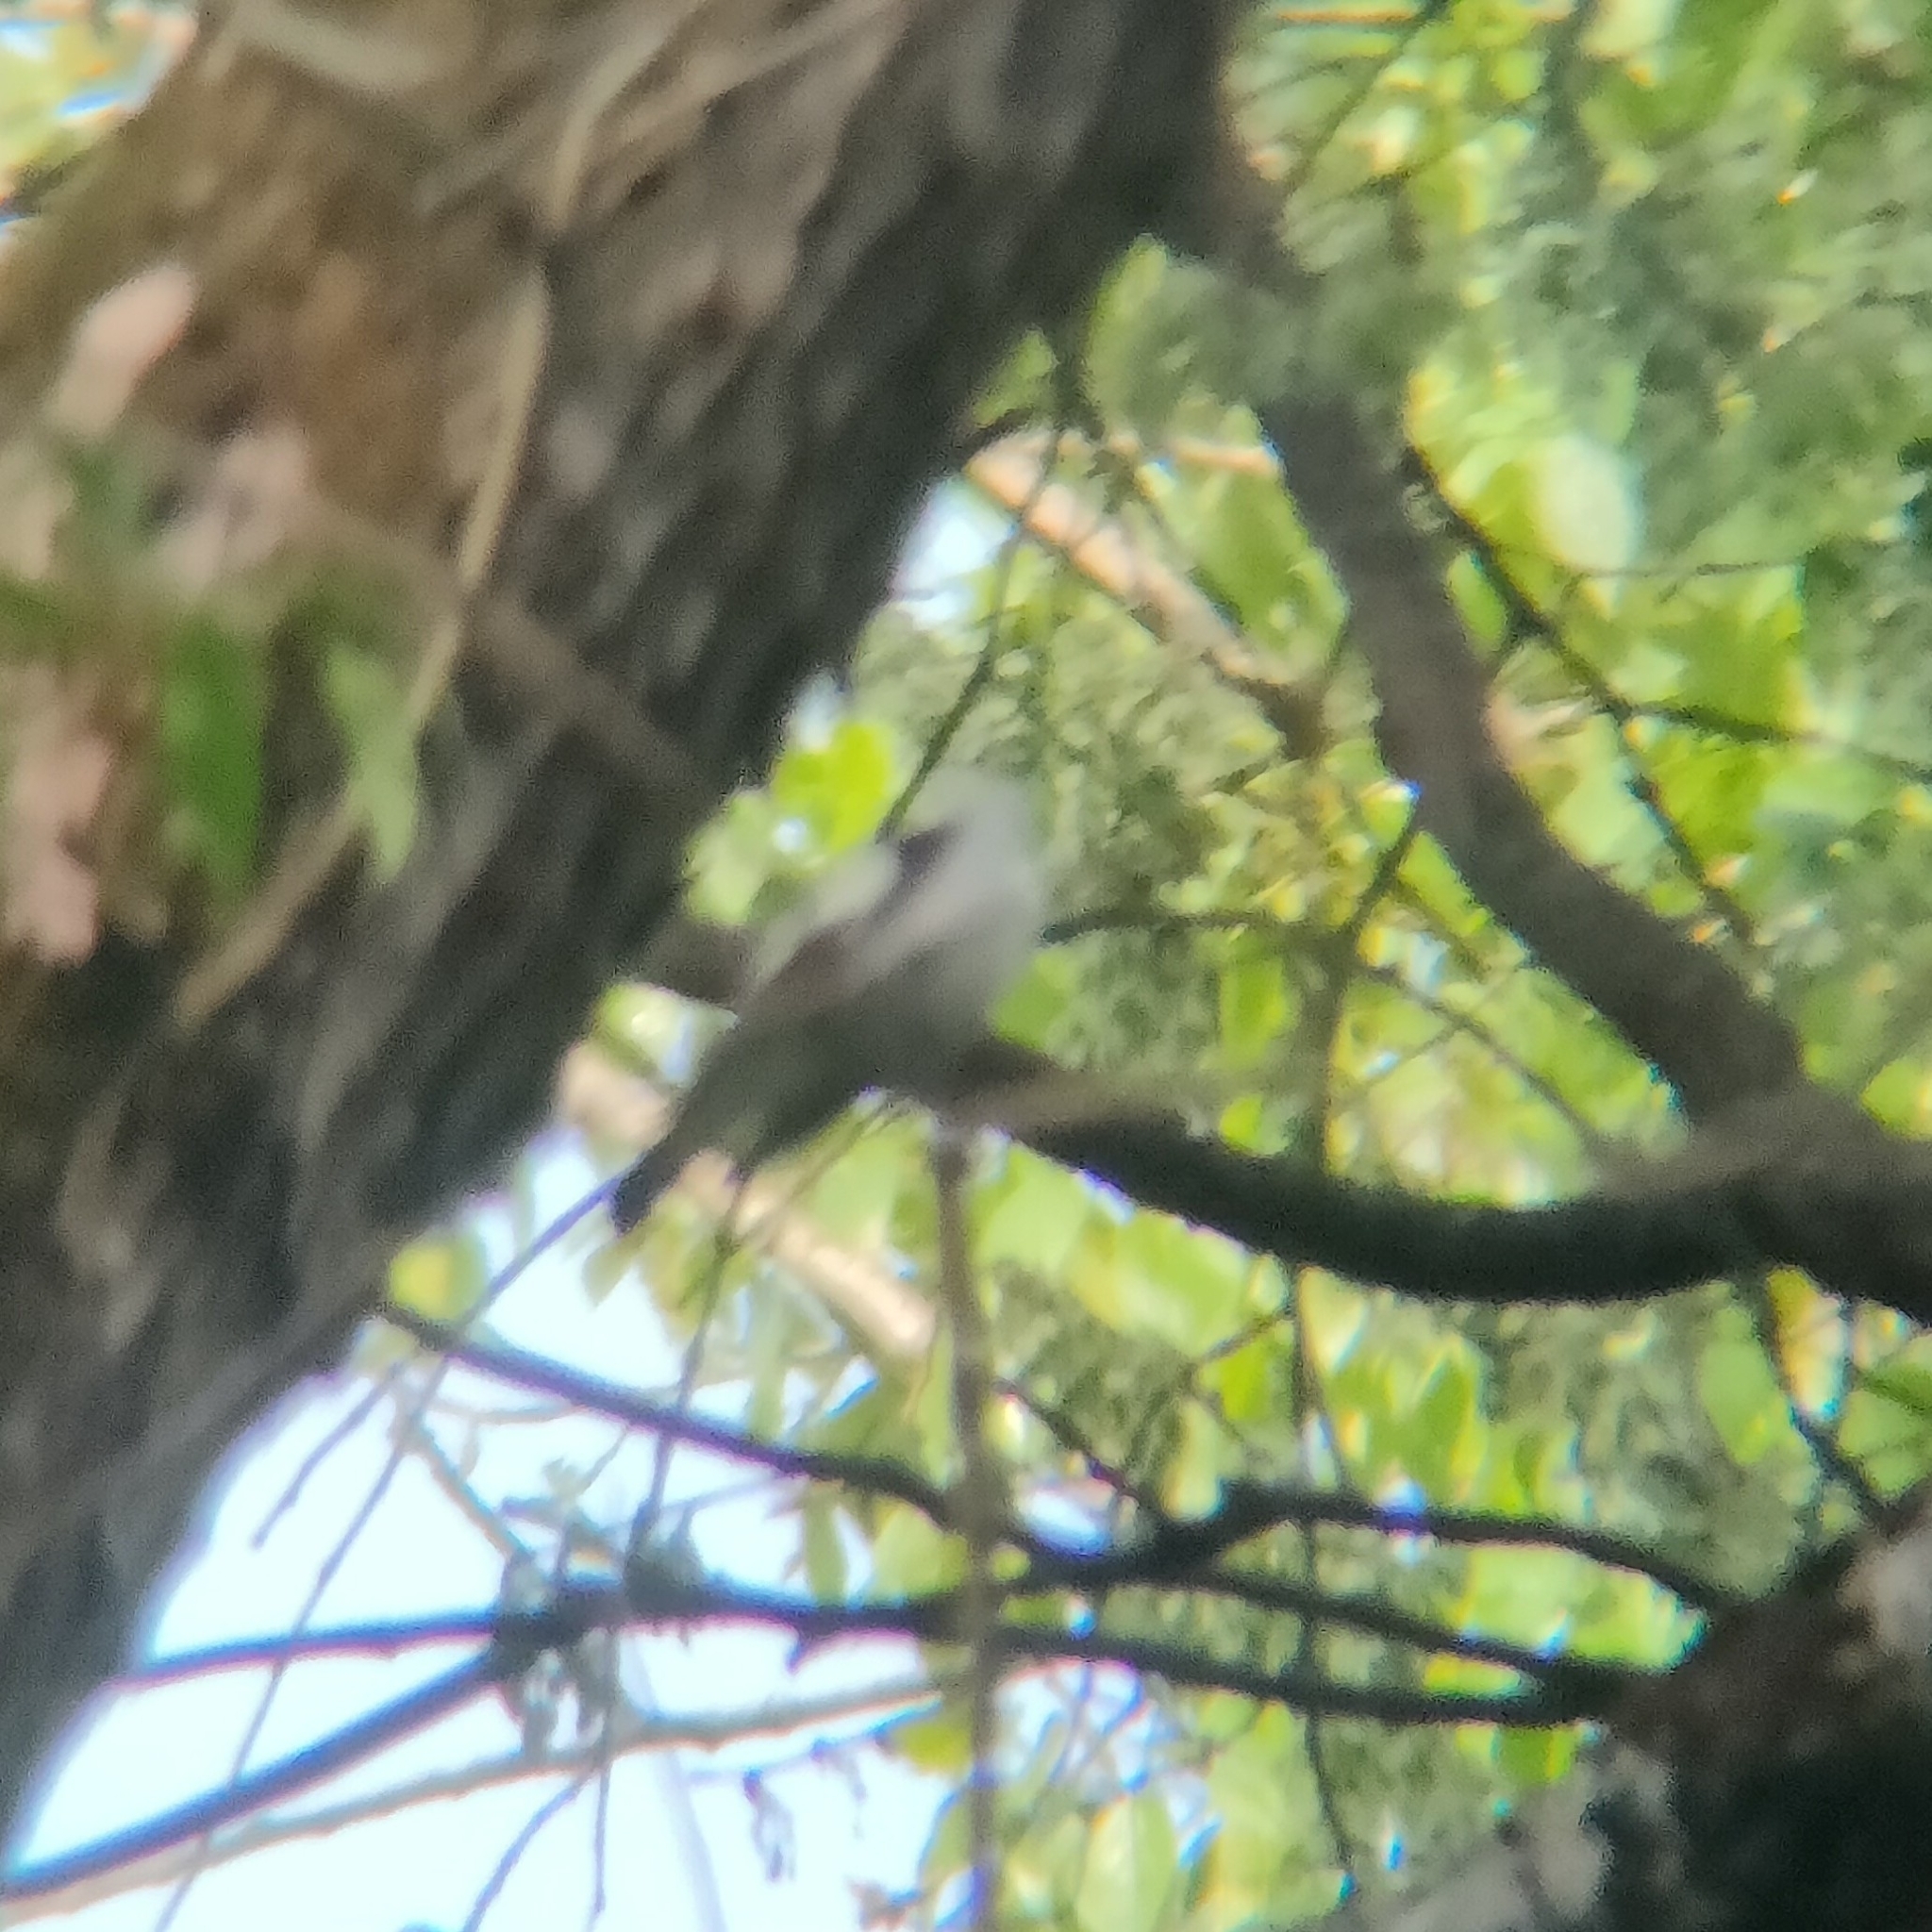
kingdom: Animalia
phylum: Chordata
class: Aves
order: Passeriformes
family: Muscicapidae
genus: Ficedula
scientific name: Ficedula albicollis
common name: Collared flycatcher
